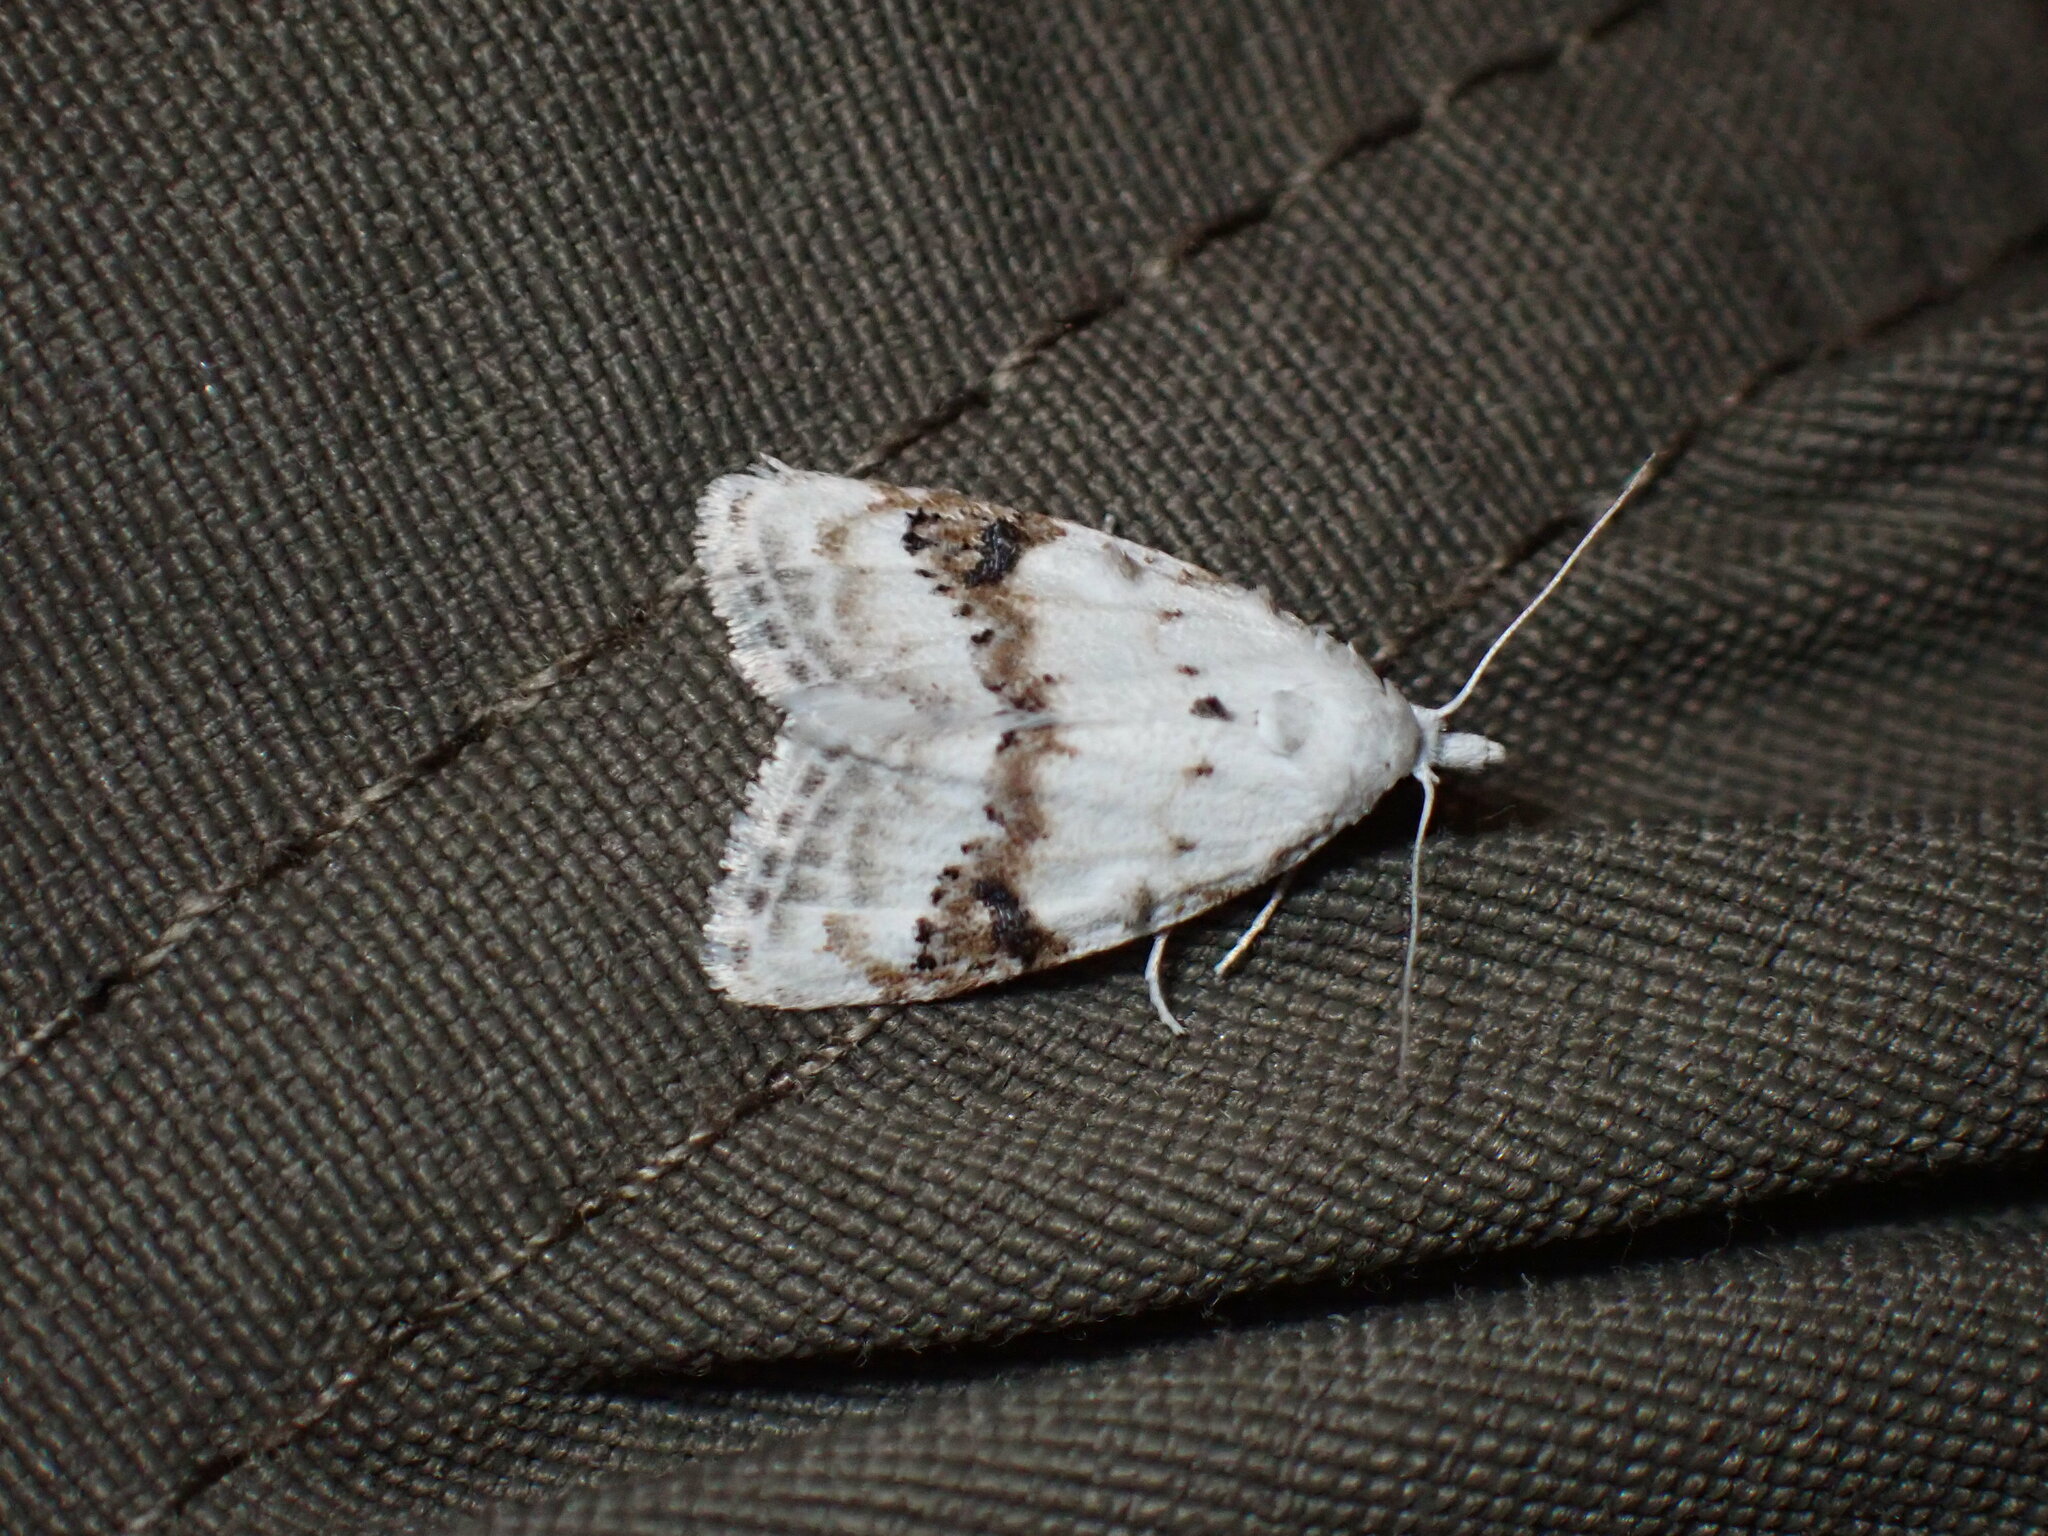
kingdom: Animalia
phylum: Arthropoda
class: Insecta
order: Lepidoptera
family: Nolidae
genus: Nola
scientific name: Nola cilicoides
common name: Blurry-patched nola moth
